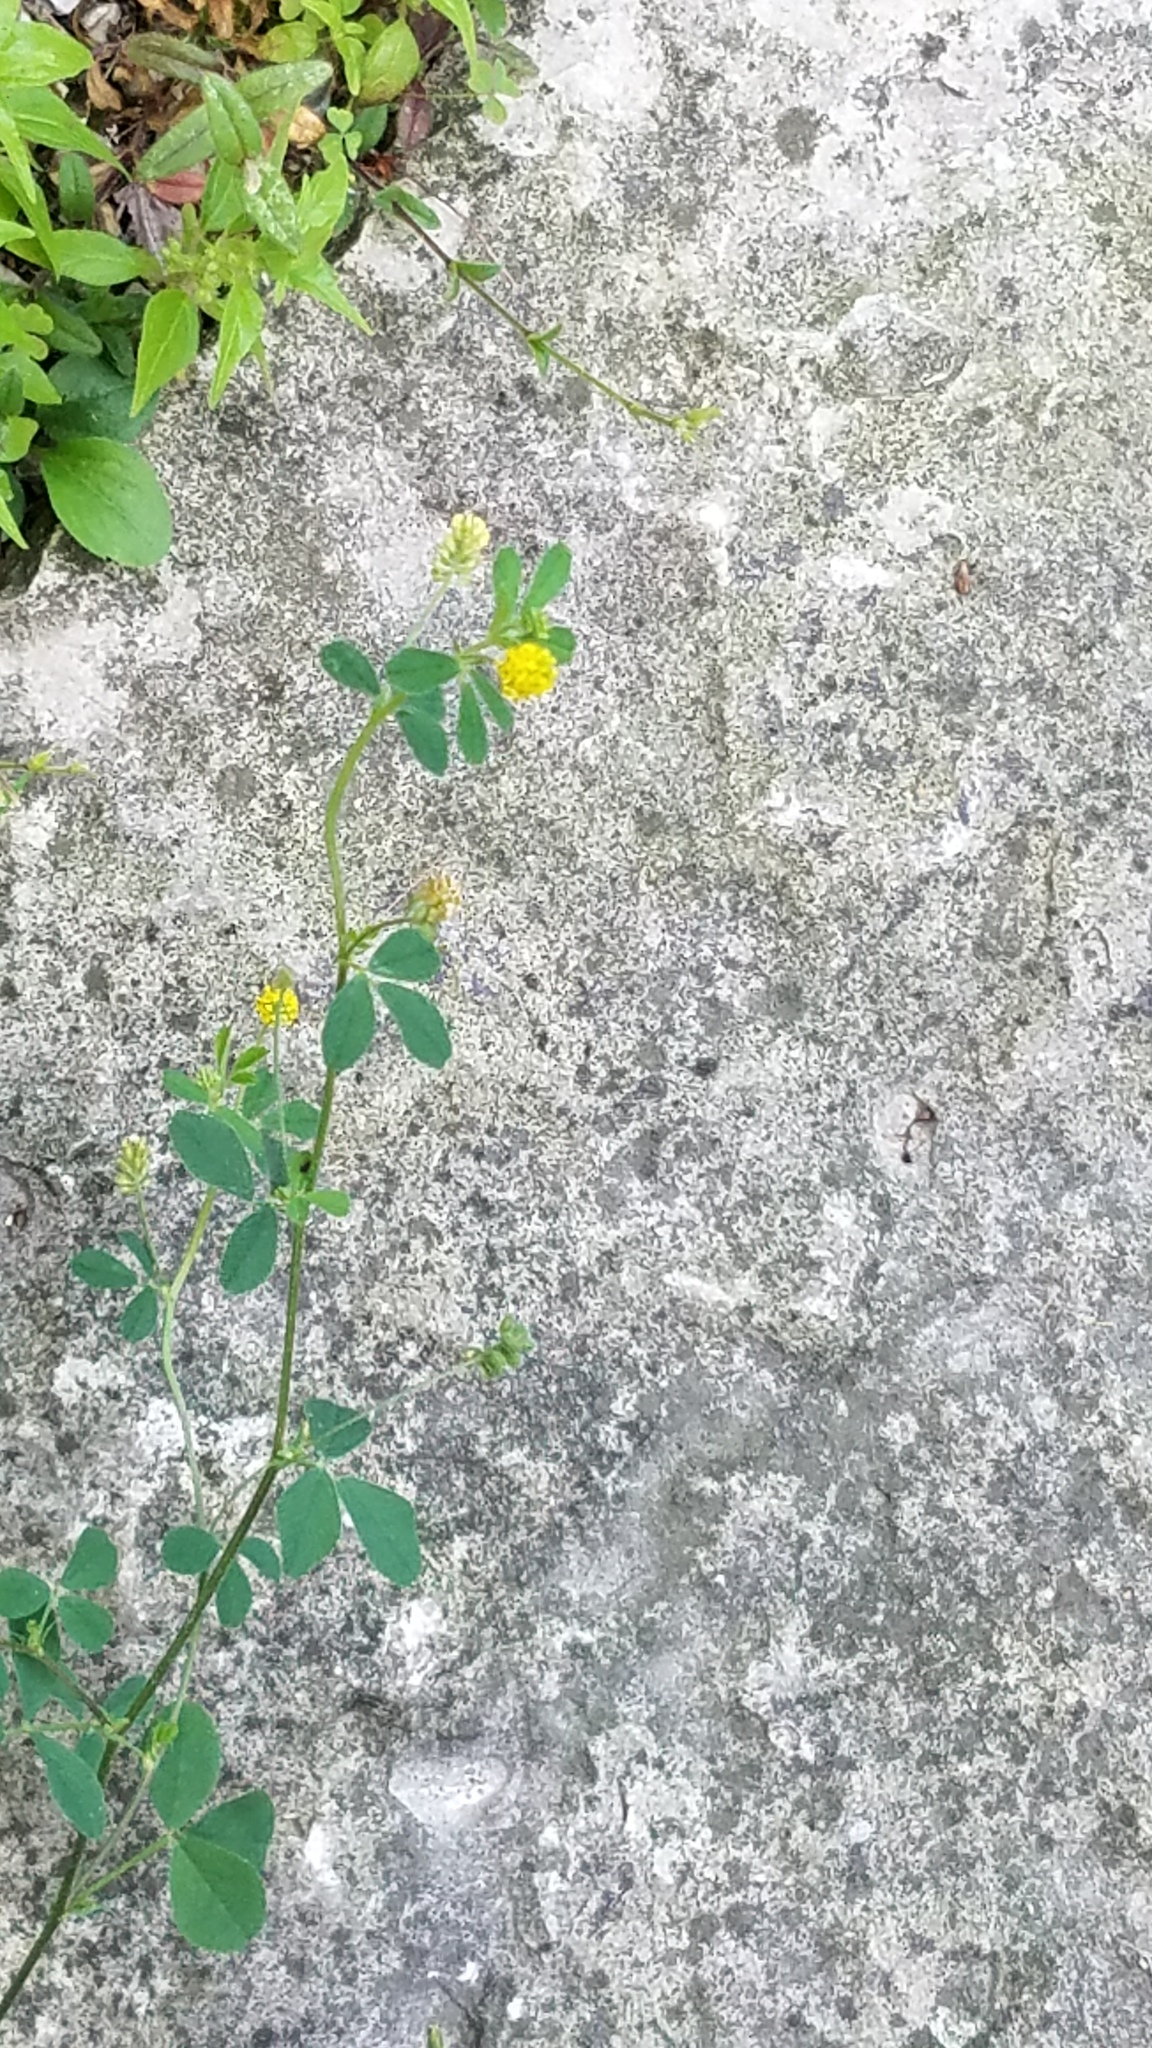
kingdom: Plantae
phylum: Tracheophyta
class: Magnoliopsida
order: Fabales
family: Fabaceae
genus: Medicago
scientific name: Medicago lupulina
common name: Black medick
